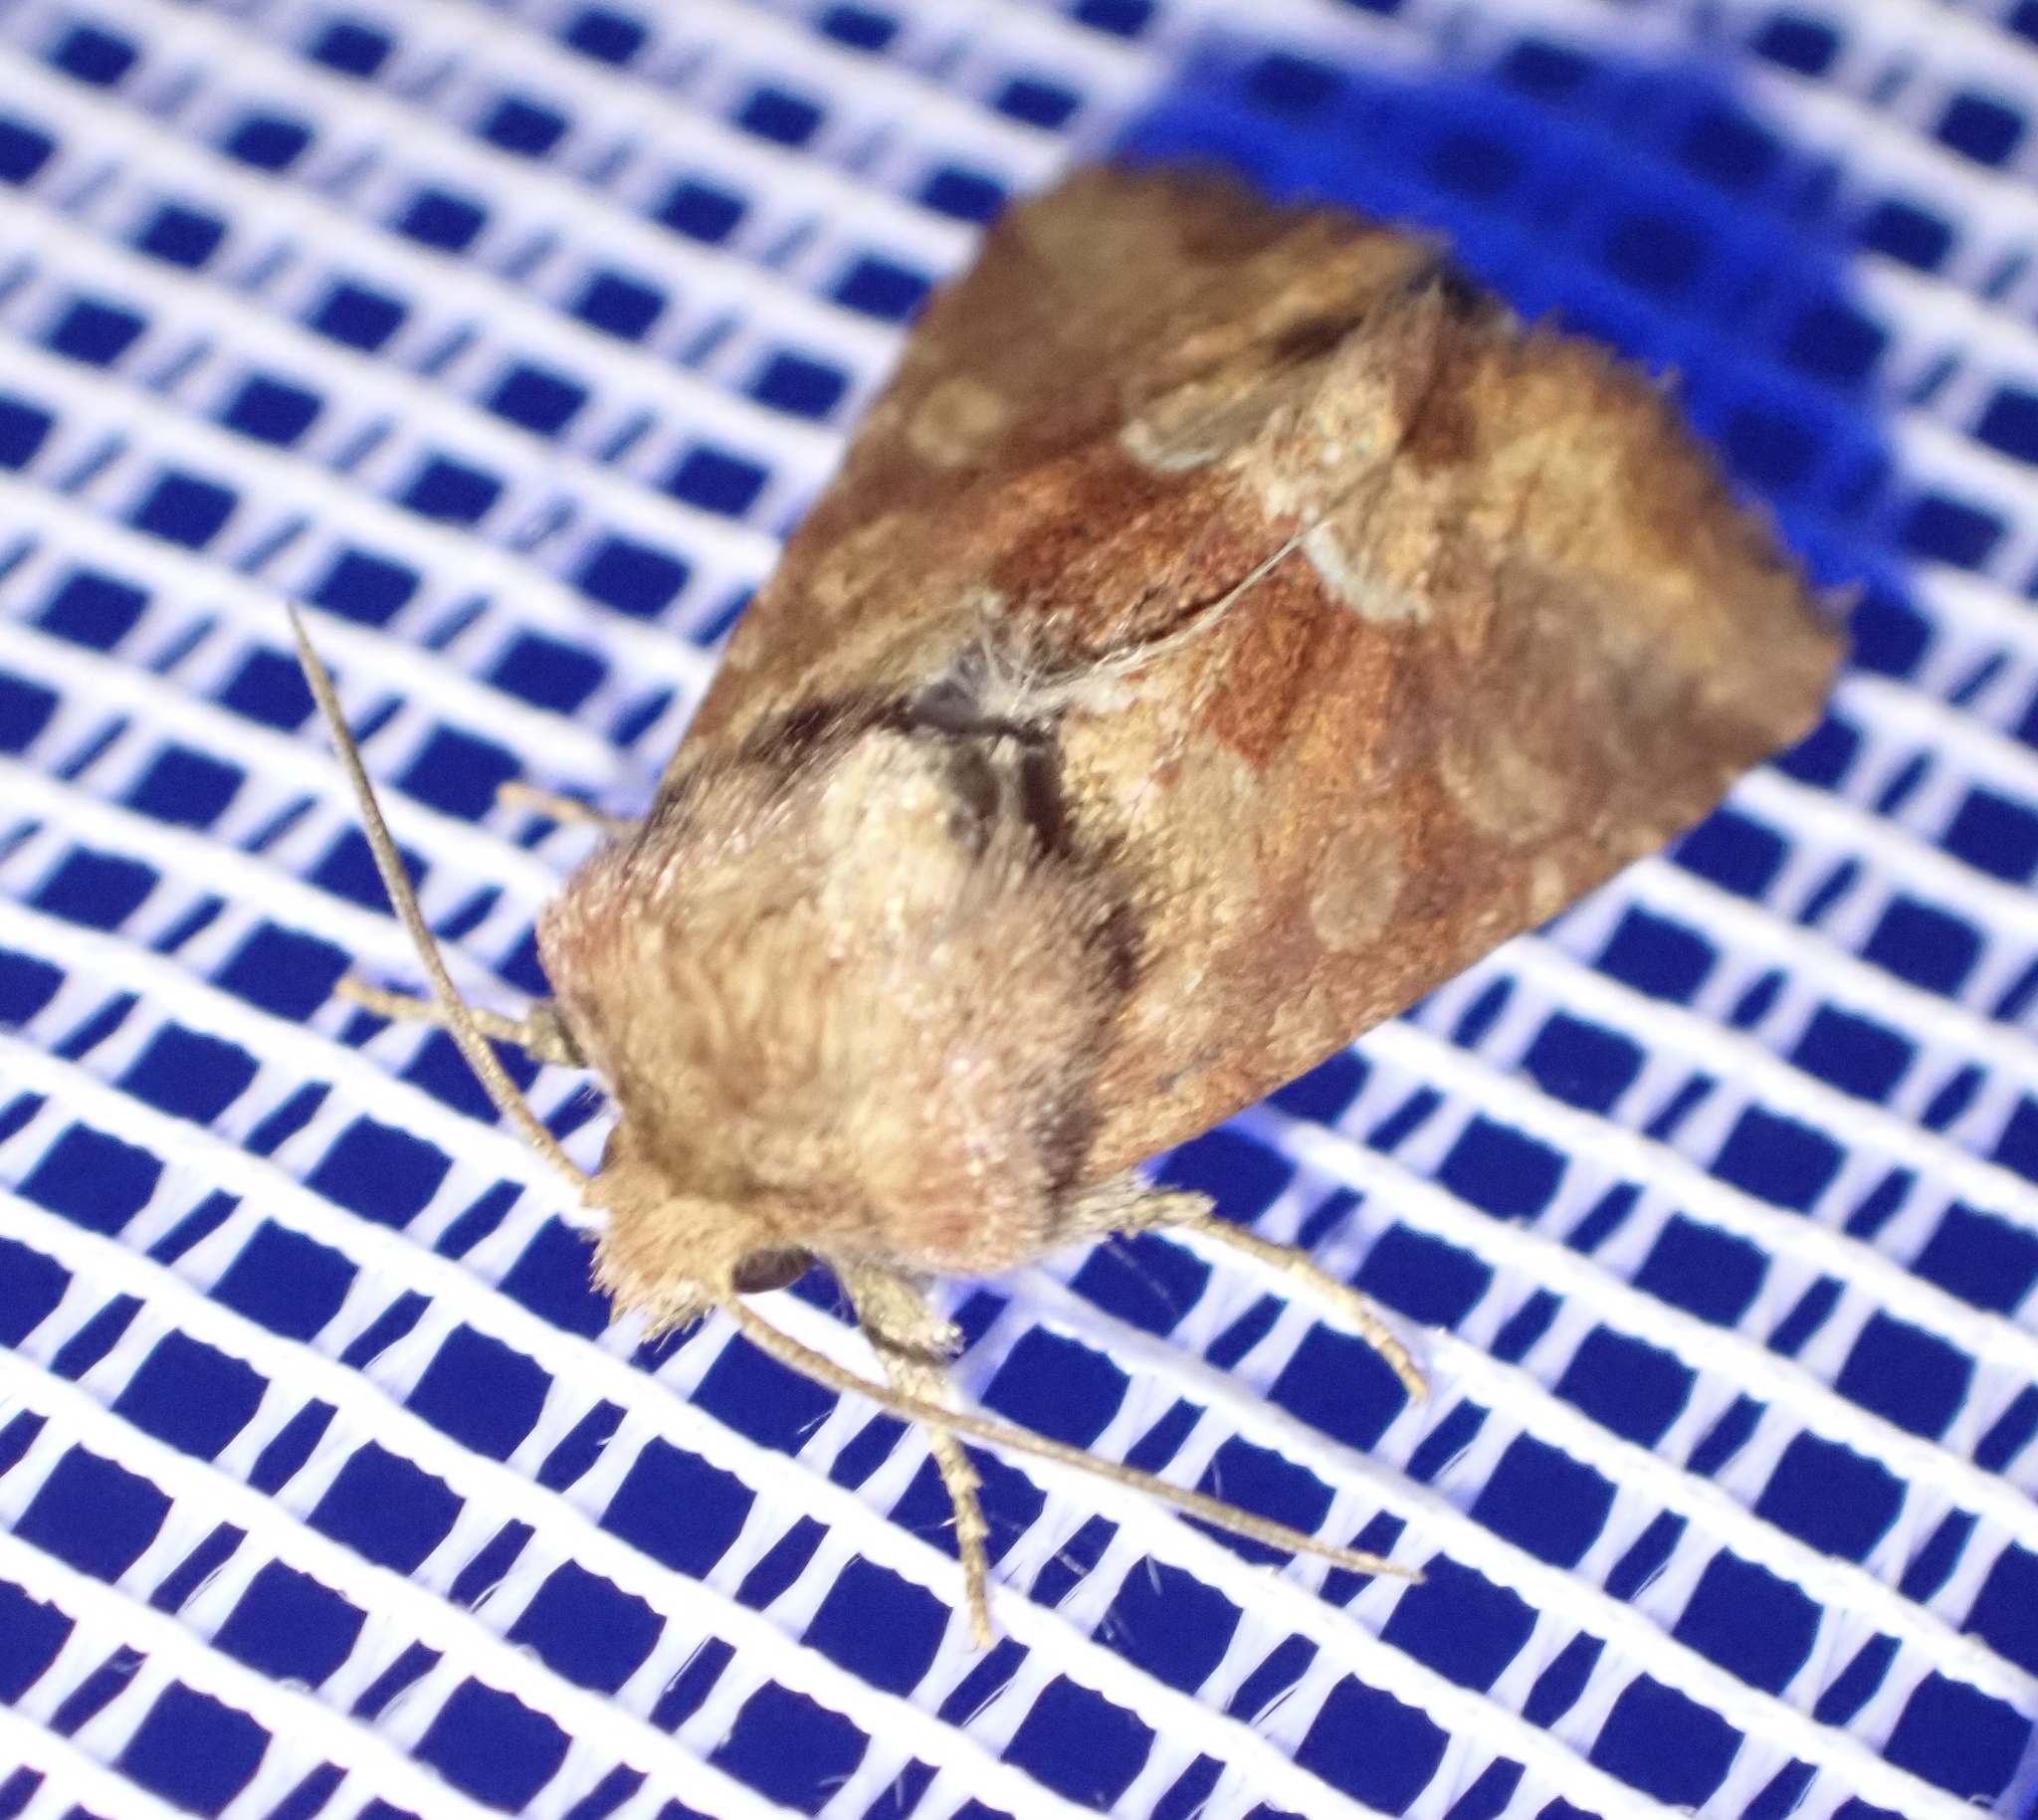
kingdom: Animalia
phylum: Arthropoda
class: Insecta
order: Lepidoptera
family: Noctuidae
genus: Oligia
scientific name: Oligia fasciuncula
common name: Middle-barred minor
